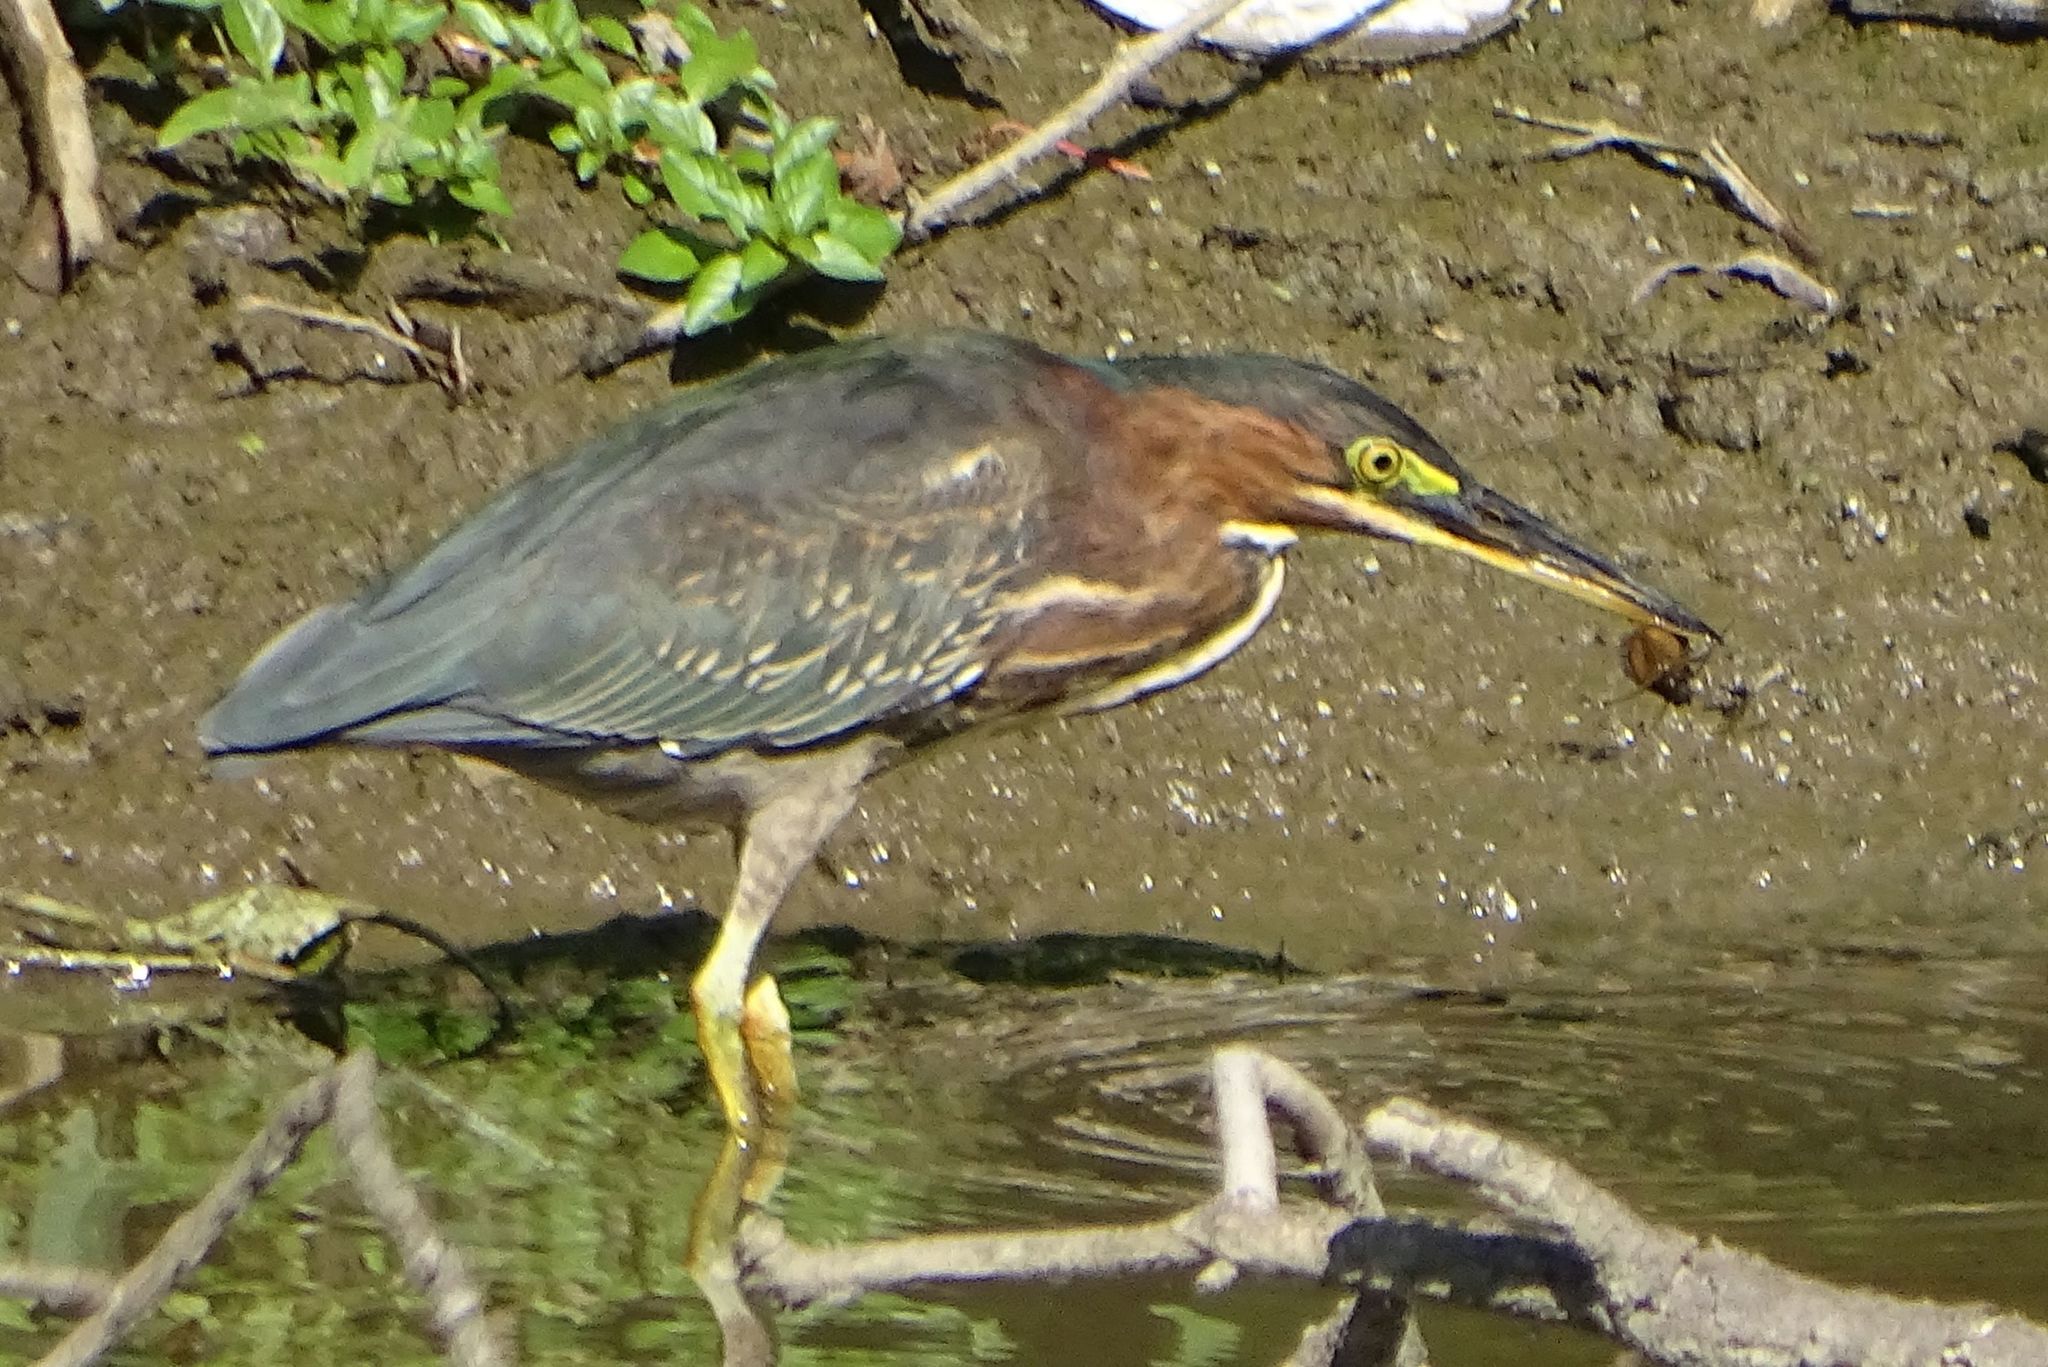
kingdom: Animalia
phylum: Chordata
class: Aves
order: Pelecaniformes
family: Ardeidae
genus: Butorides
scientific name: Butorides virescens
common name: Green heron
